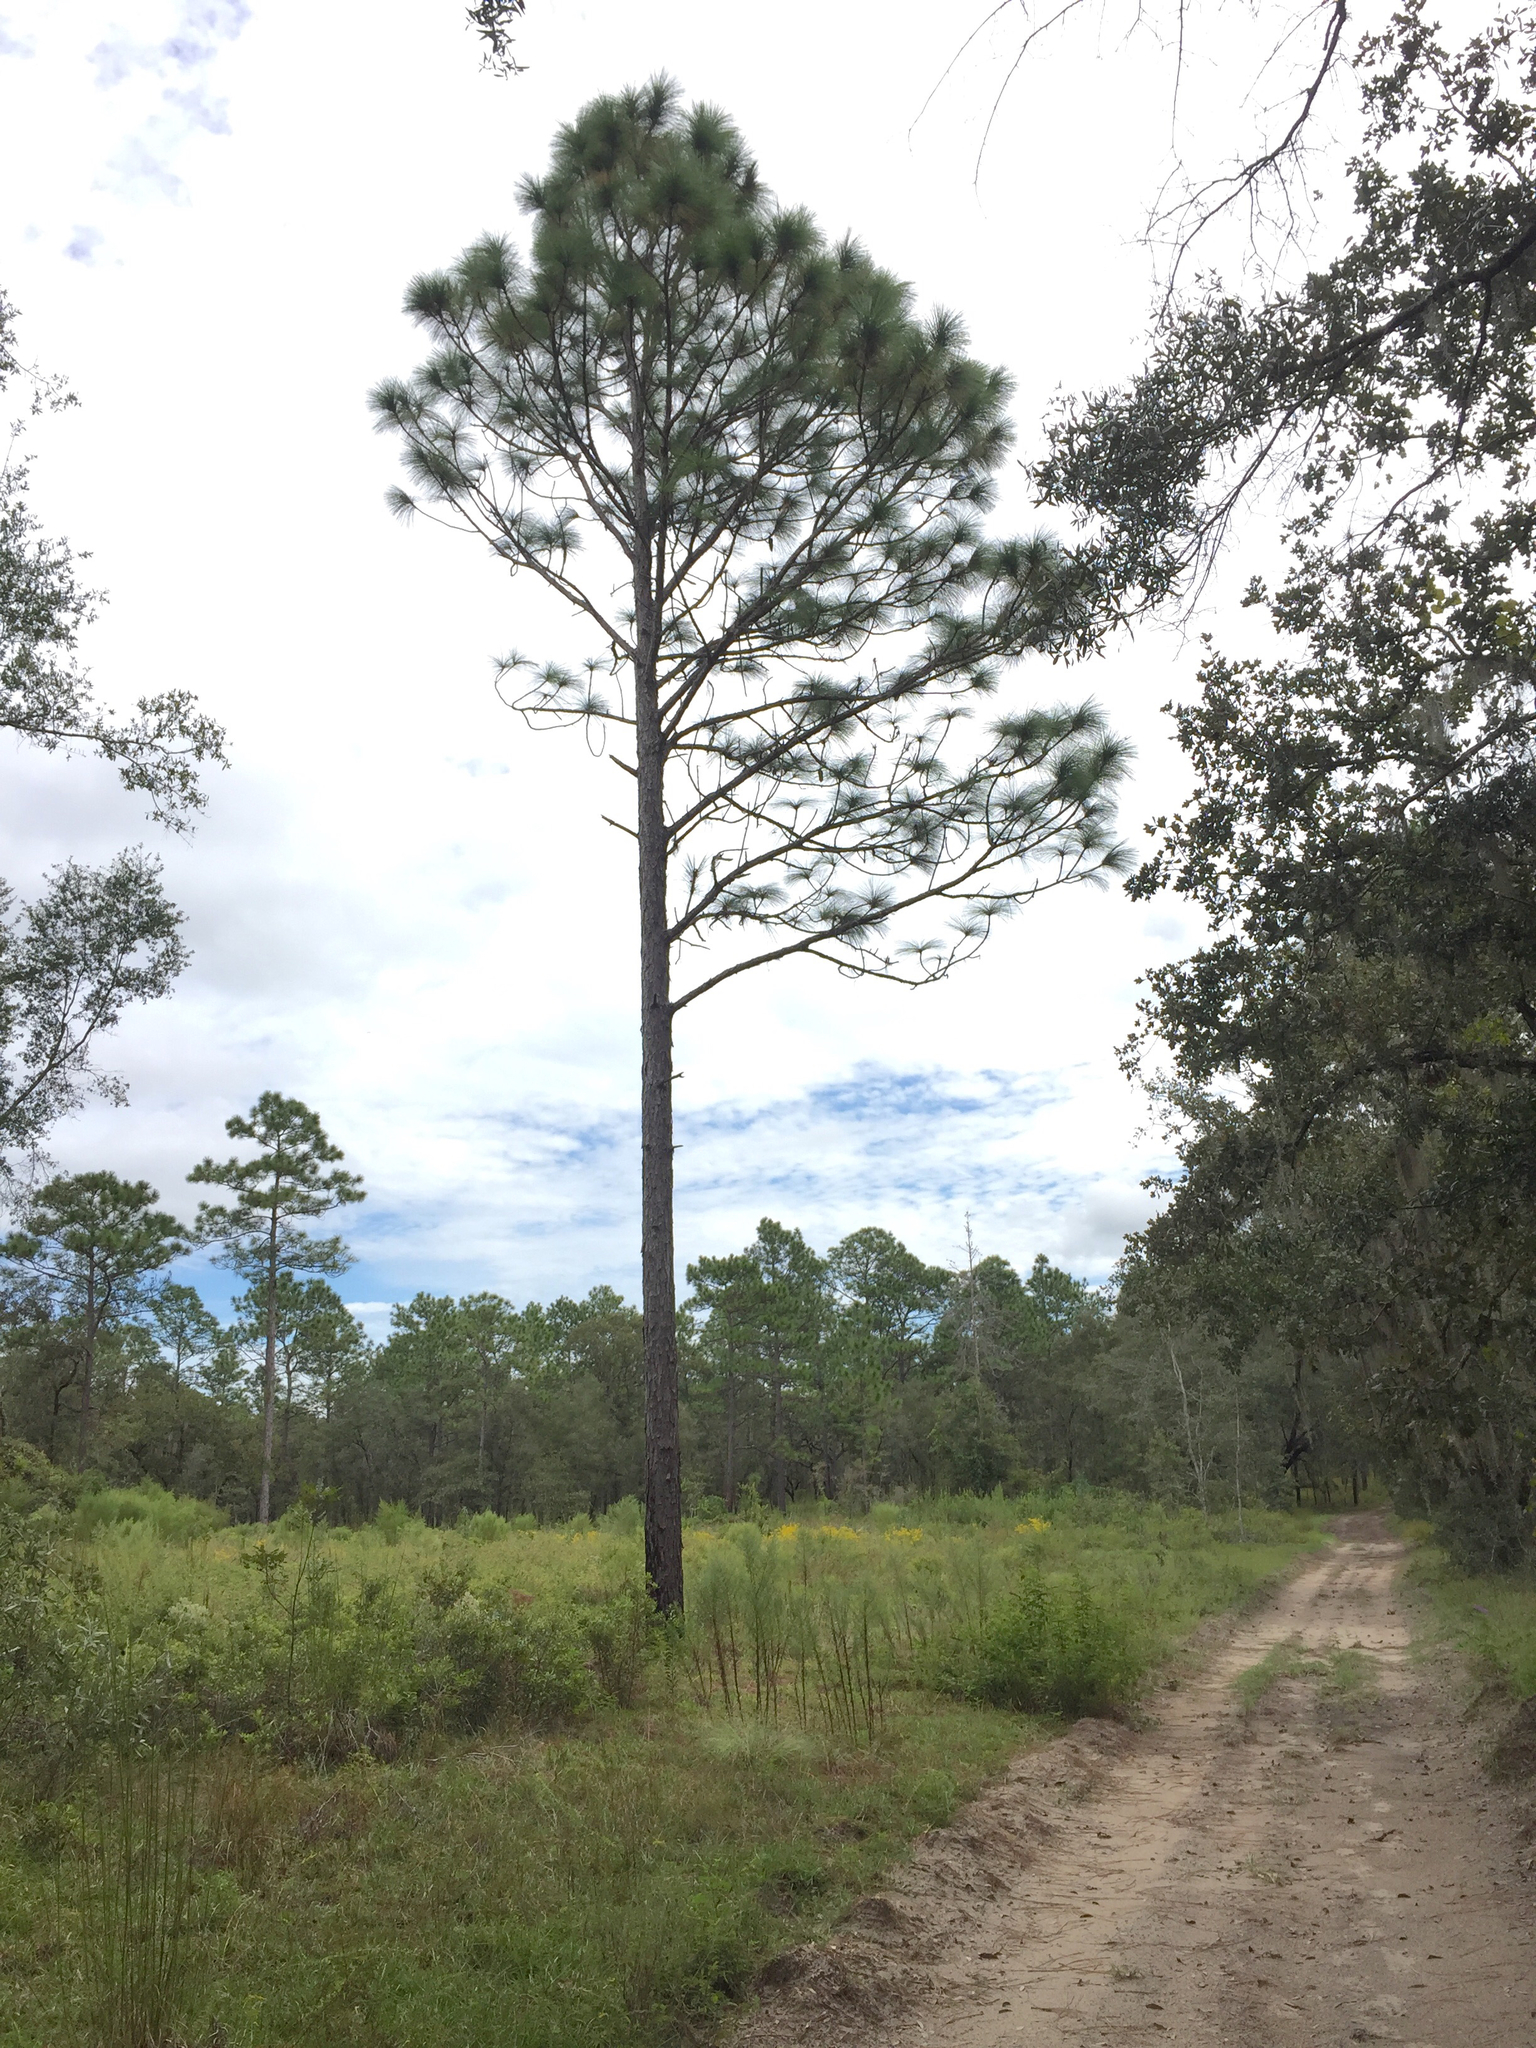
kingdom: Plantae
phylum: Tracheophyta
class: Pinopsida
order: Pinales
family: Pinaceae
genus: Pinus
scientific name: Pinus elliottii
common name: Slash pine
